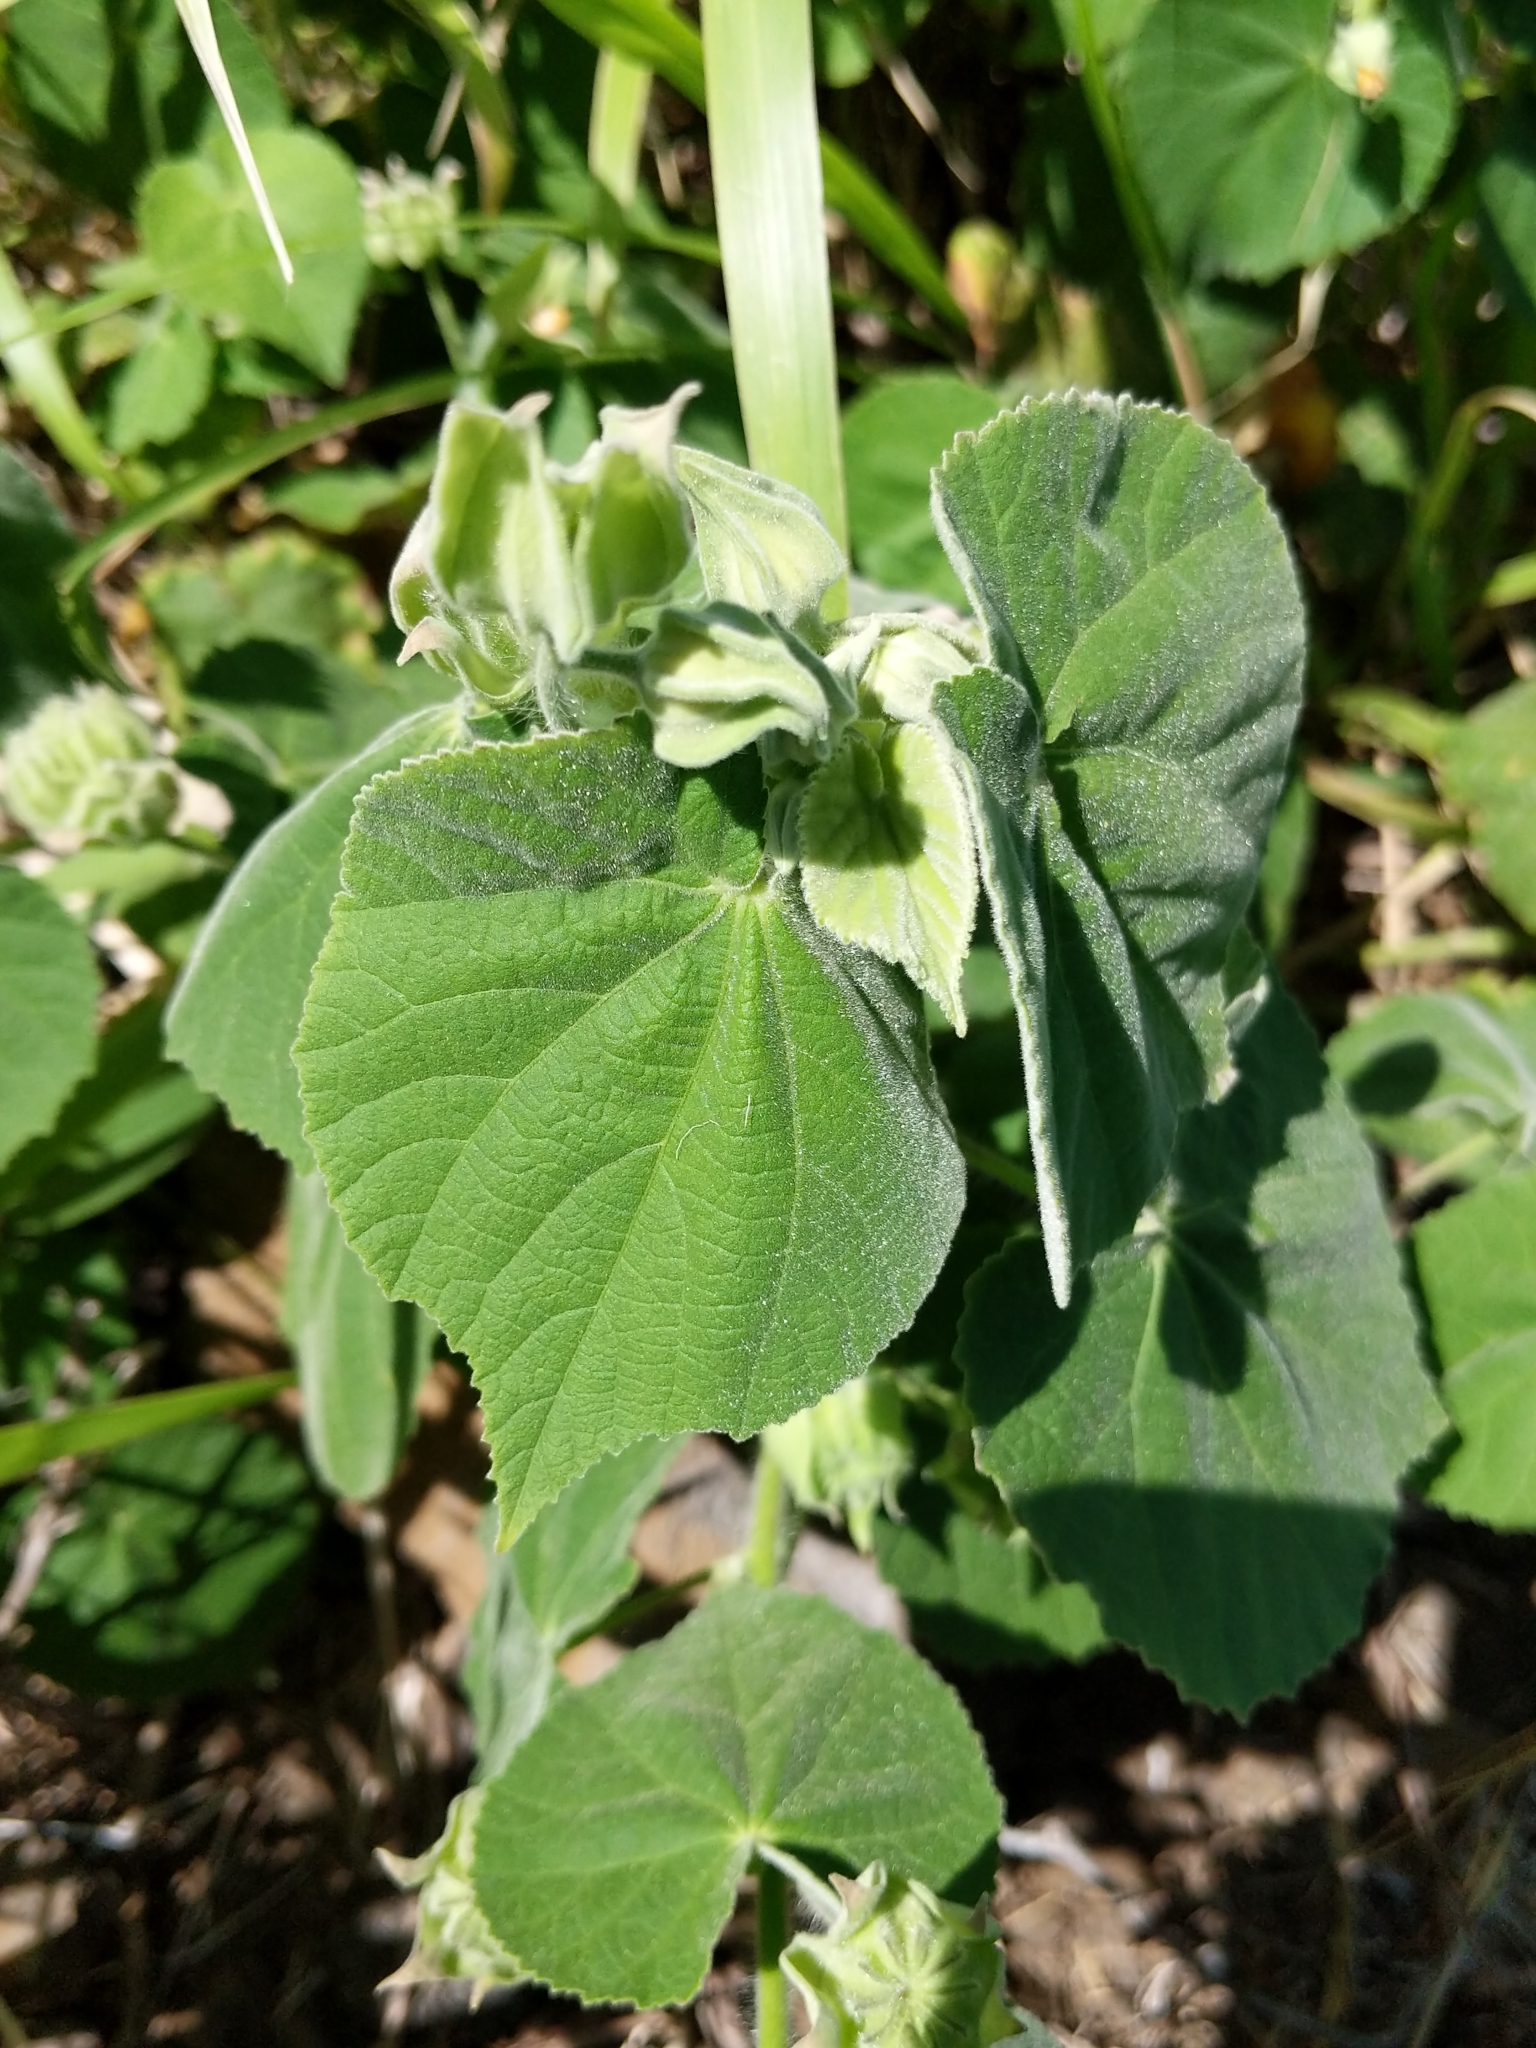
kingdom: Plantae
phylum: Tracheophyta
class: Magnoliopsida
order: Malvales
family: Malvaceae
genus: Abutilon
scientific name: Abutilon grandifolium
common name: Hairy abutilon
